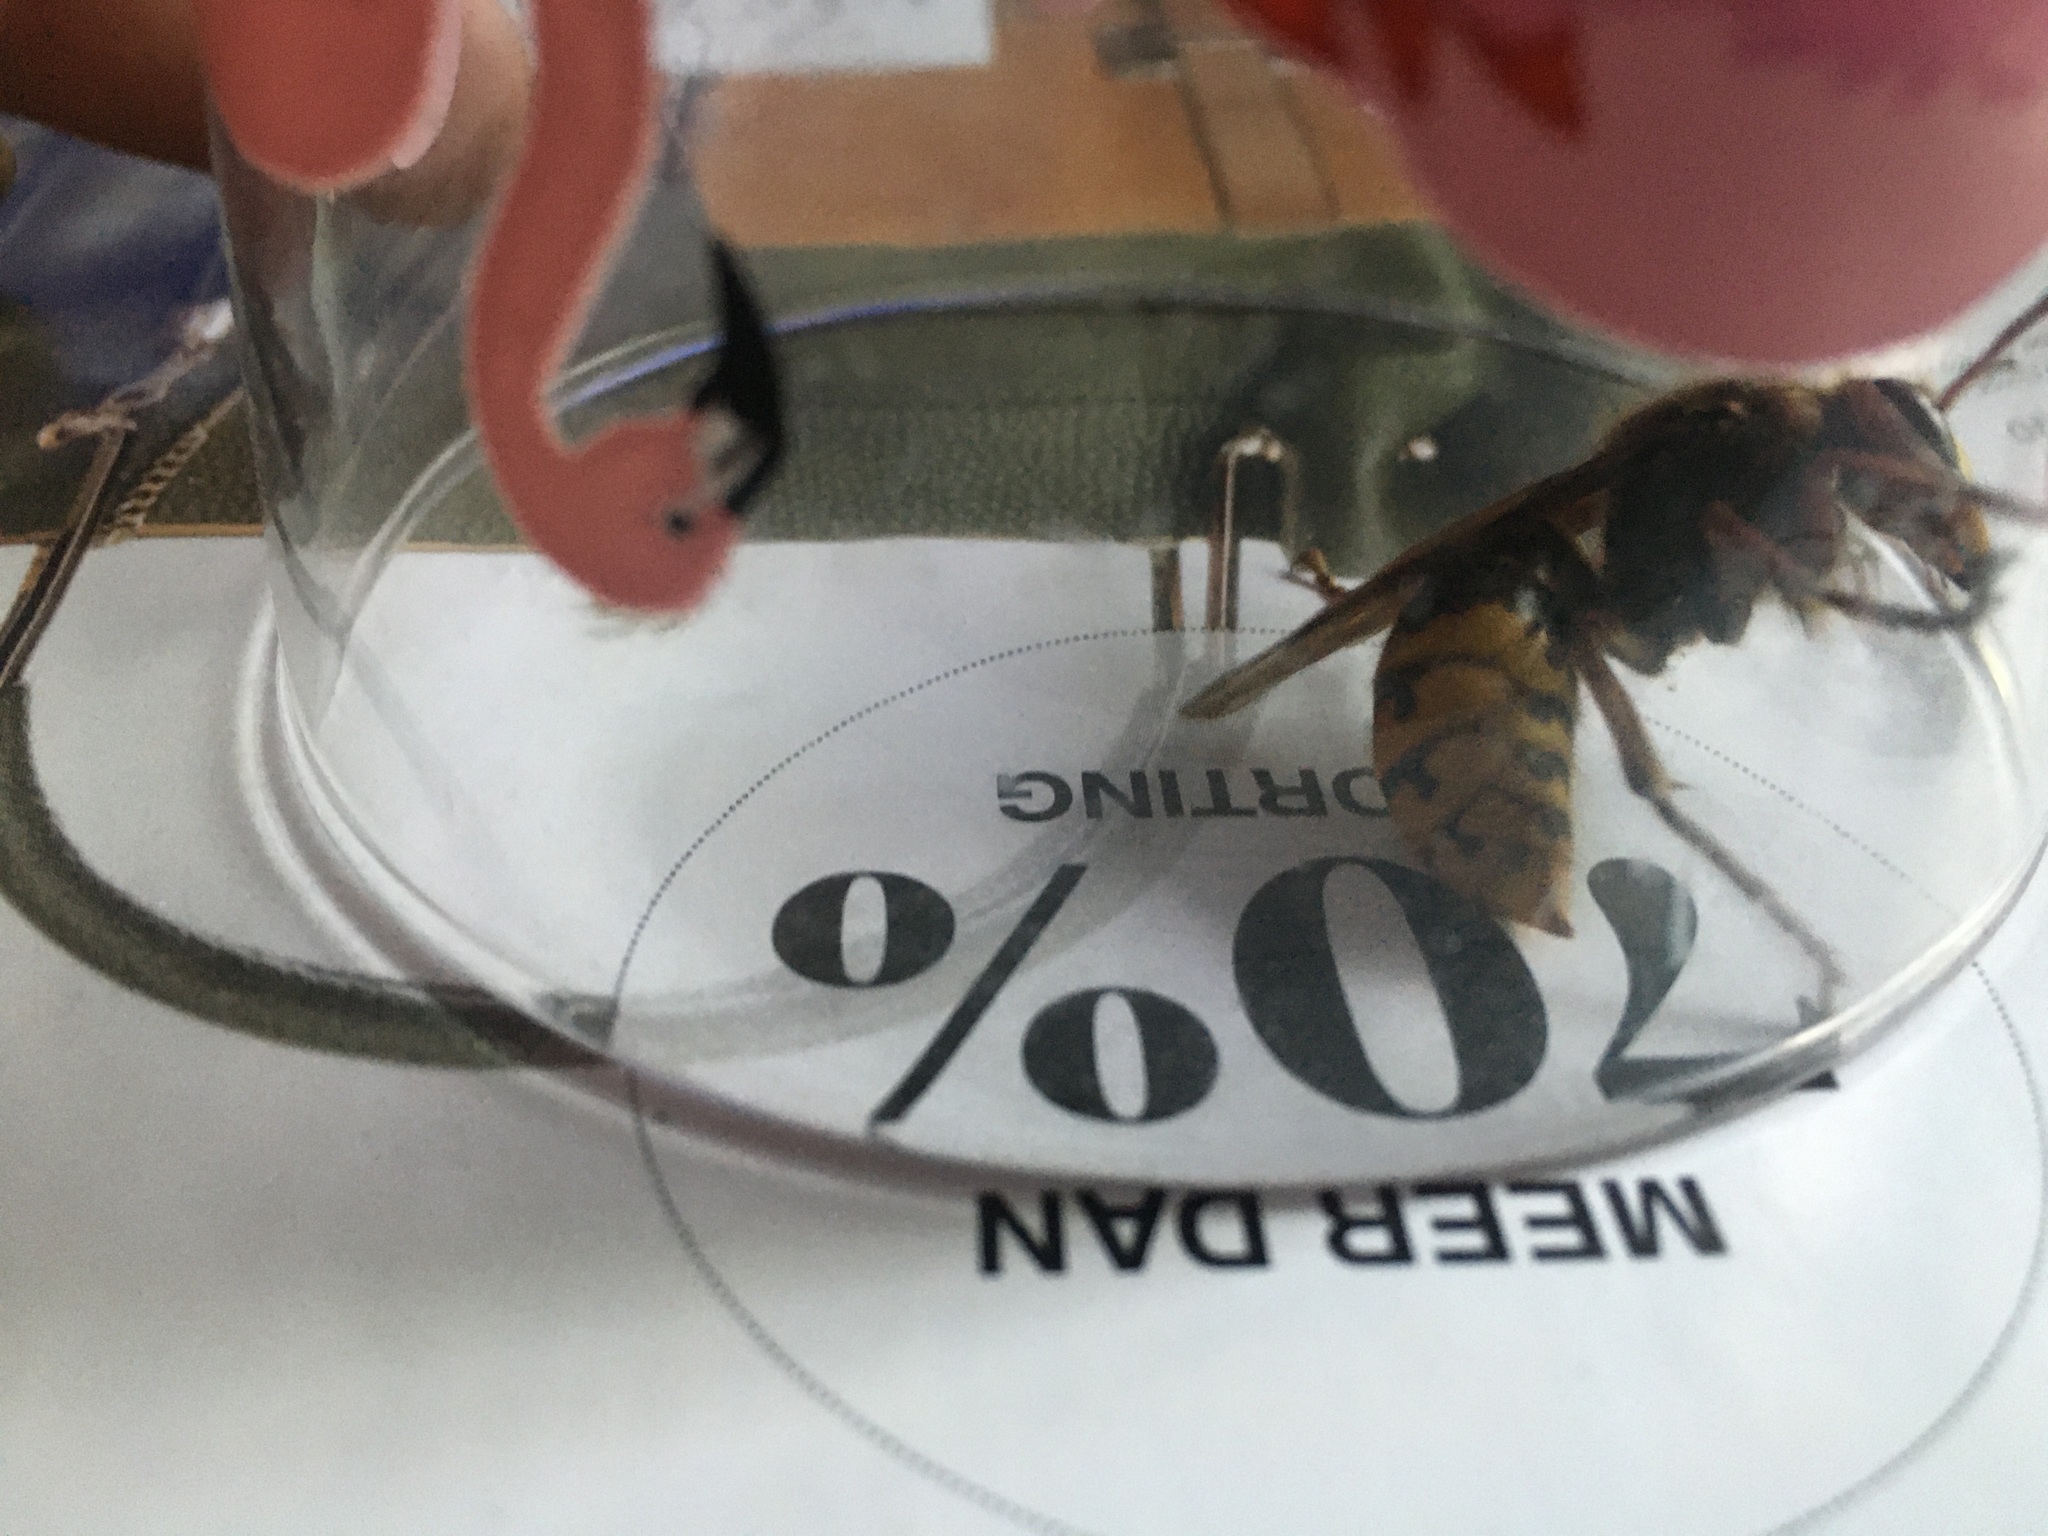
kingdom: Animalia
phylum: Arthropoda
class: Insecta
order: Hymenoptera
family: Vespidae
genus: Vespa
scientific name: Vespa crabro
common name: Hornet
